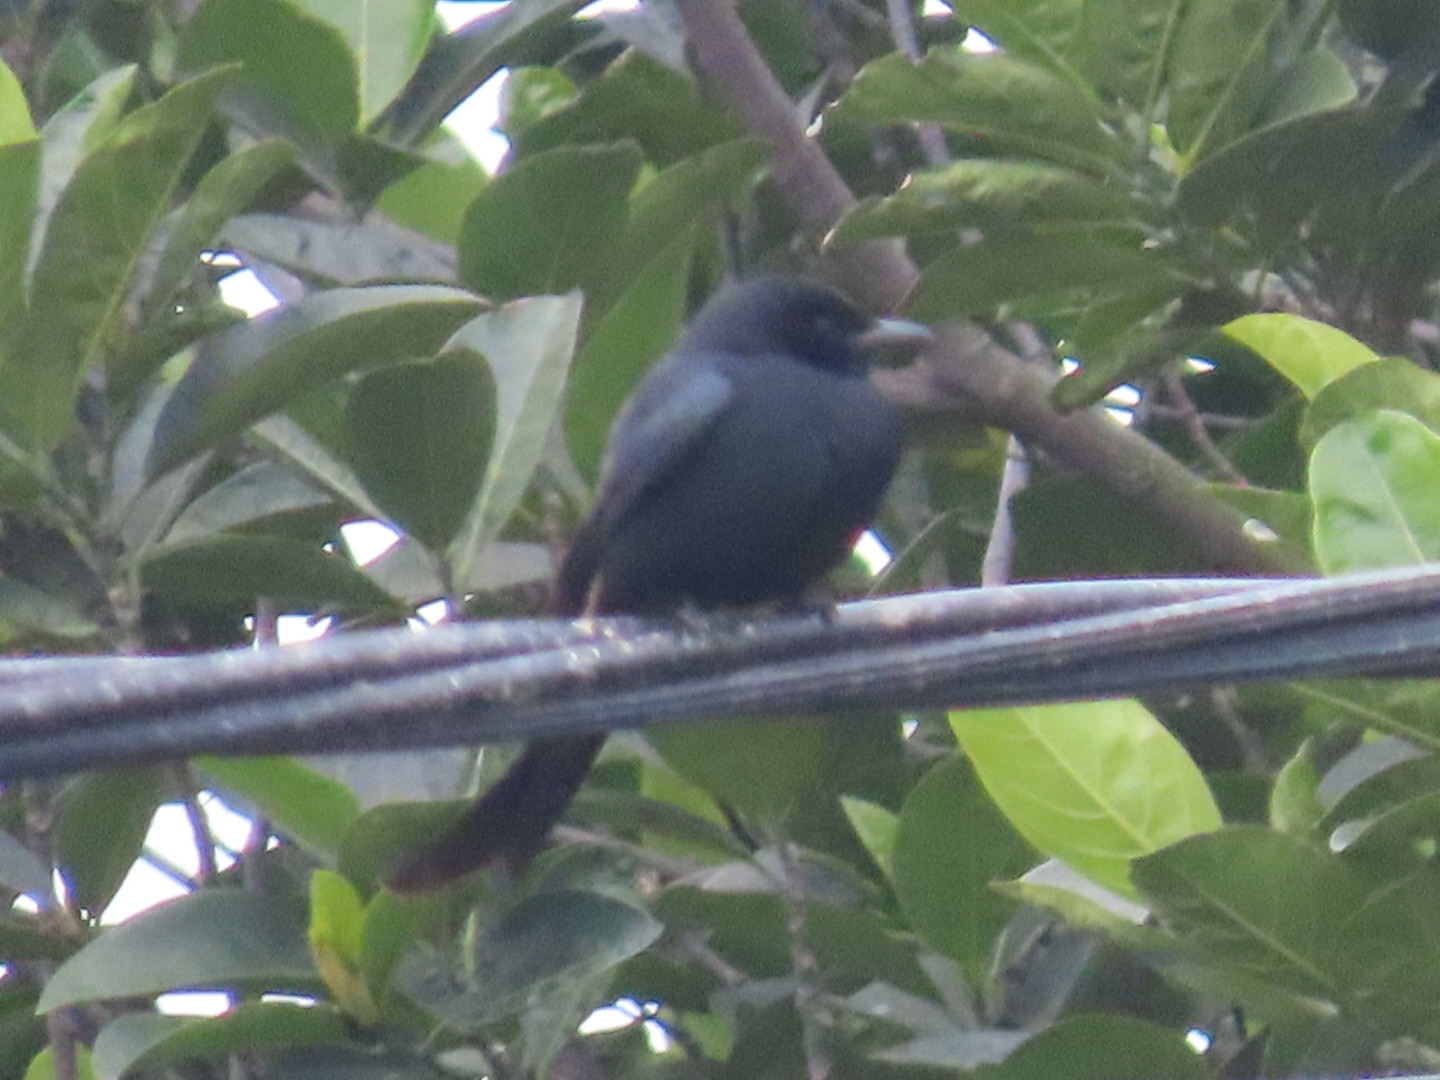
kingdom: Animalia
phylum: Chordata
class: Aves
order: Passeriformes
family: Dicruridae
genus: Dicrurus
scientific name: Dicrurus macrocercus
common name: Black drongo
